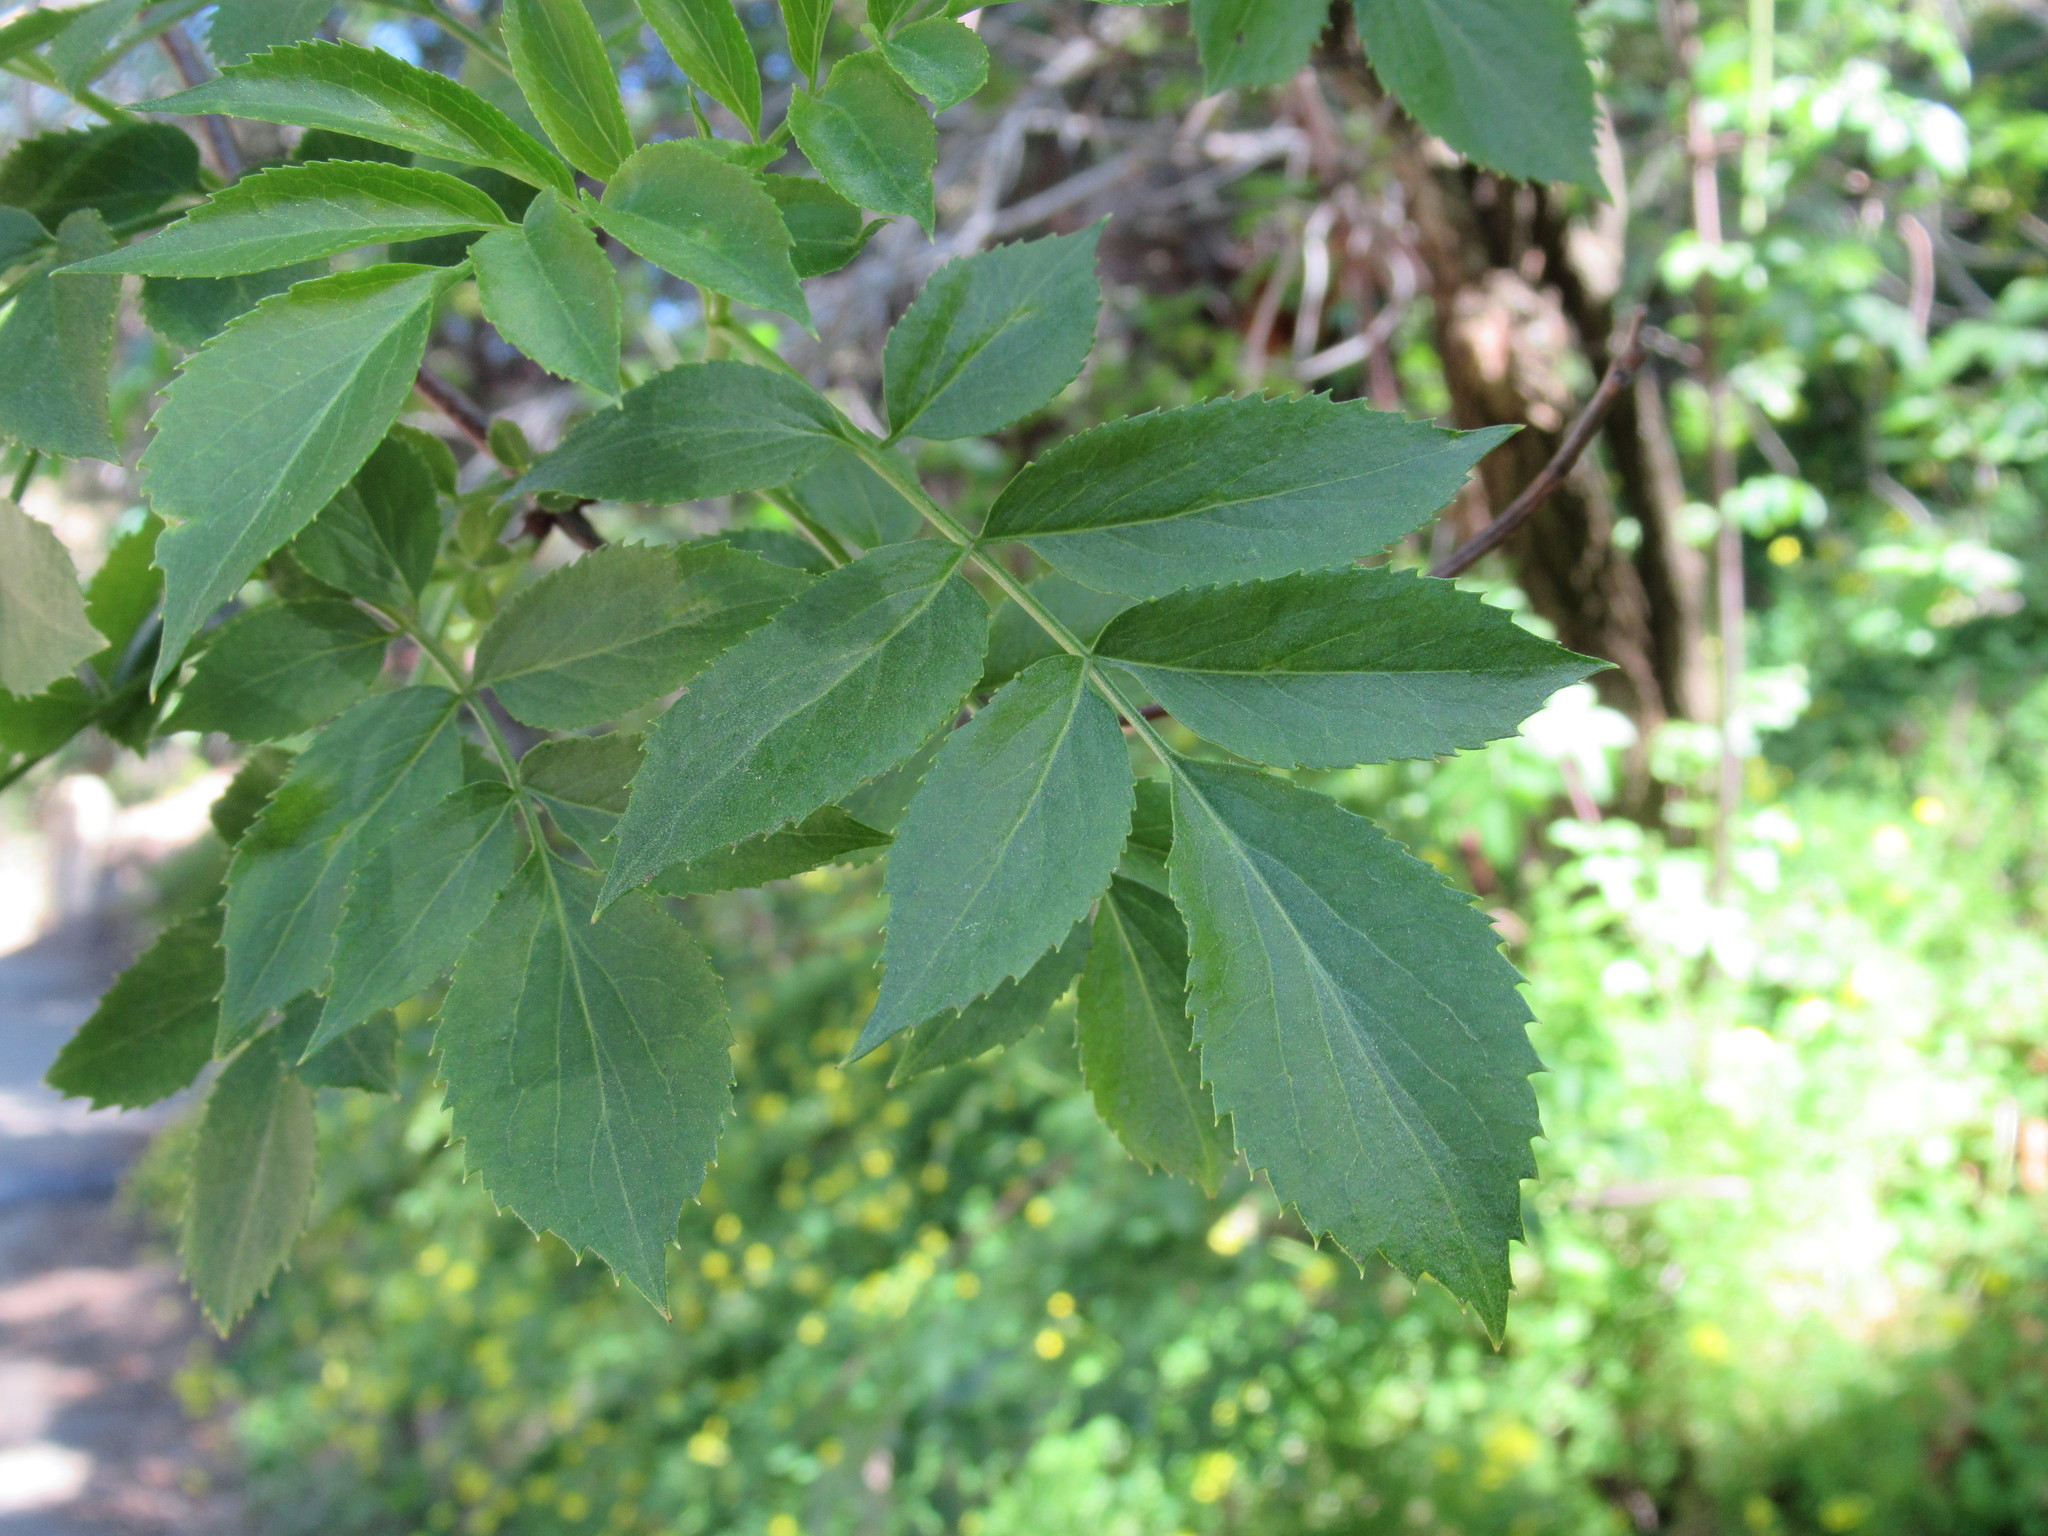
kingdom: Plantae
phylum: Tracheophyta
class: Magnoliopsida
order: Dipsacales
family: Viburnaceae
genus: Sambucus
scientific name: Sambucus cerulea
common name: Blue elder
